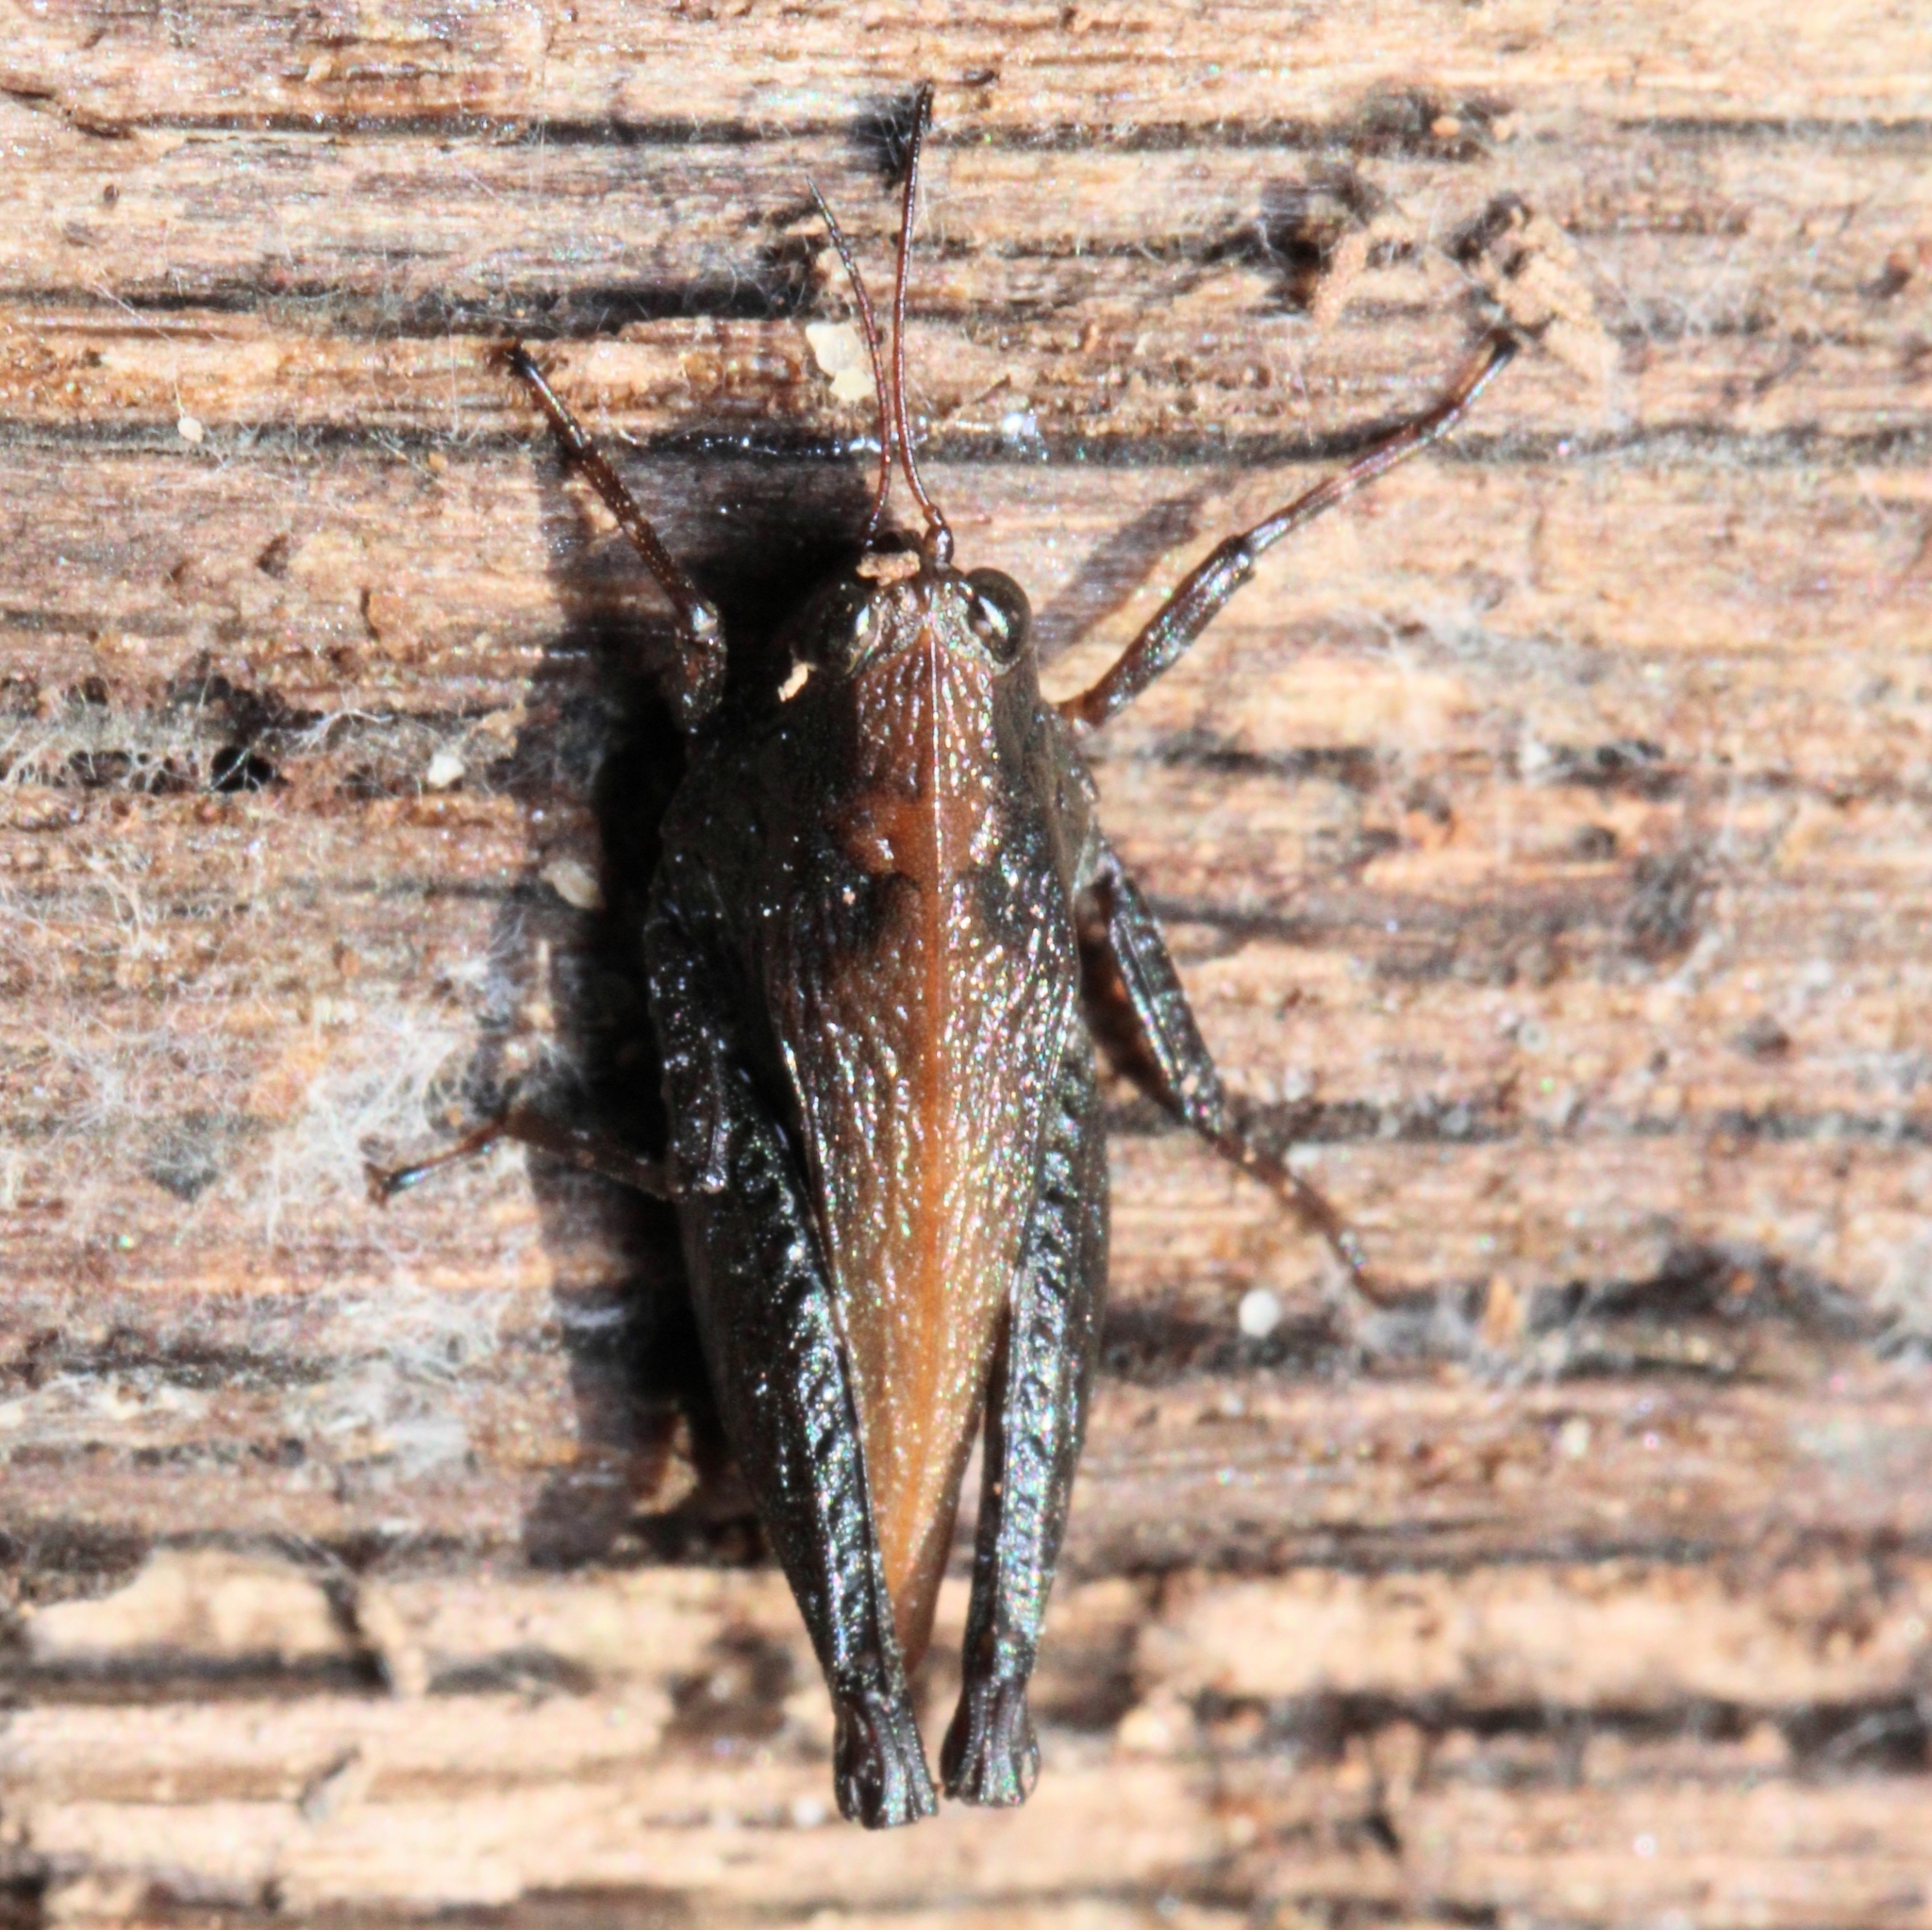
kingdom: Animalia
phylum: Arthropoda
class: Insecta
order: Orthoptera
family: Tetrigidae
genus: Tettigidea
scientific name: Tettigidea laterale
